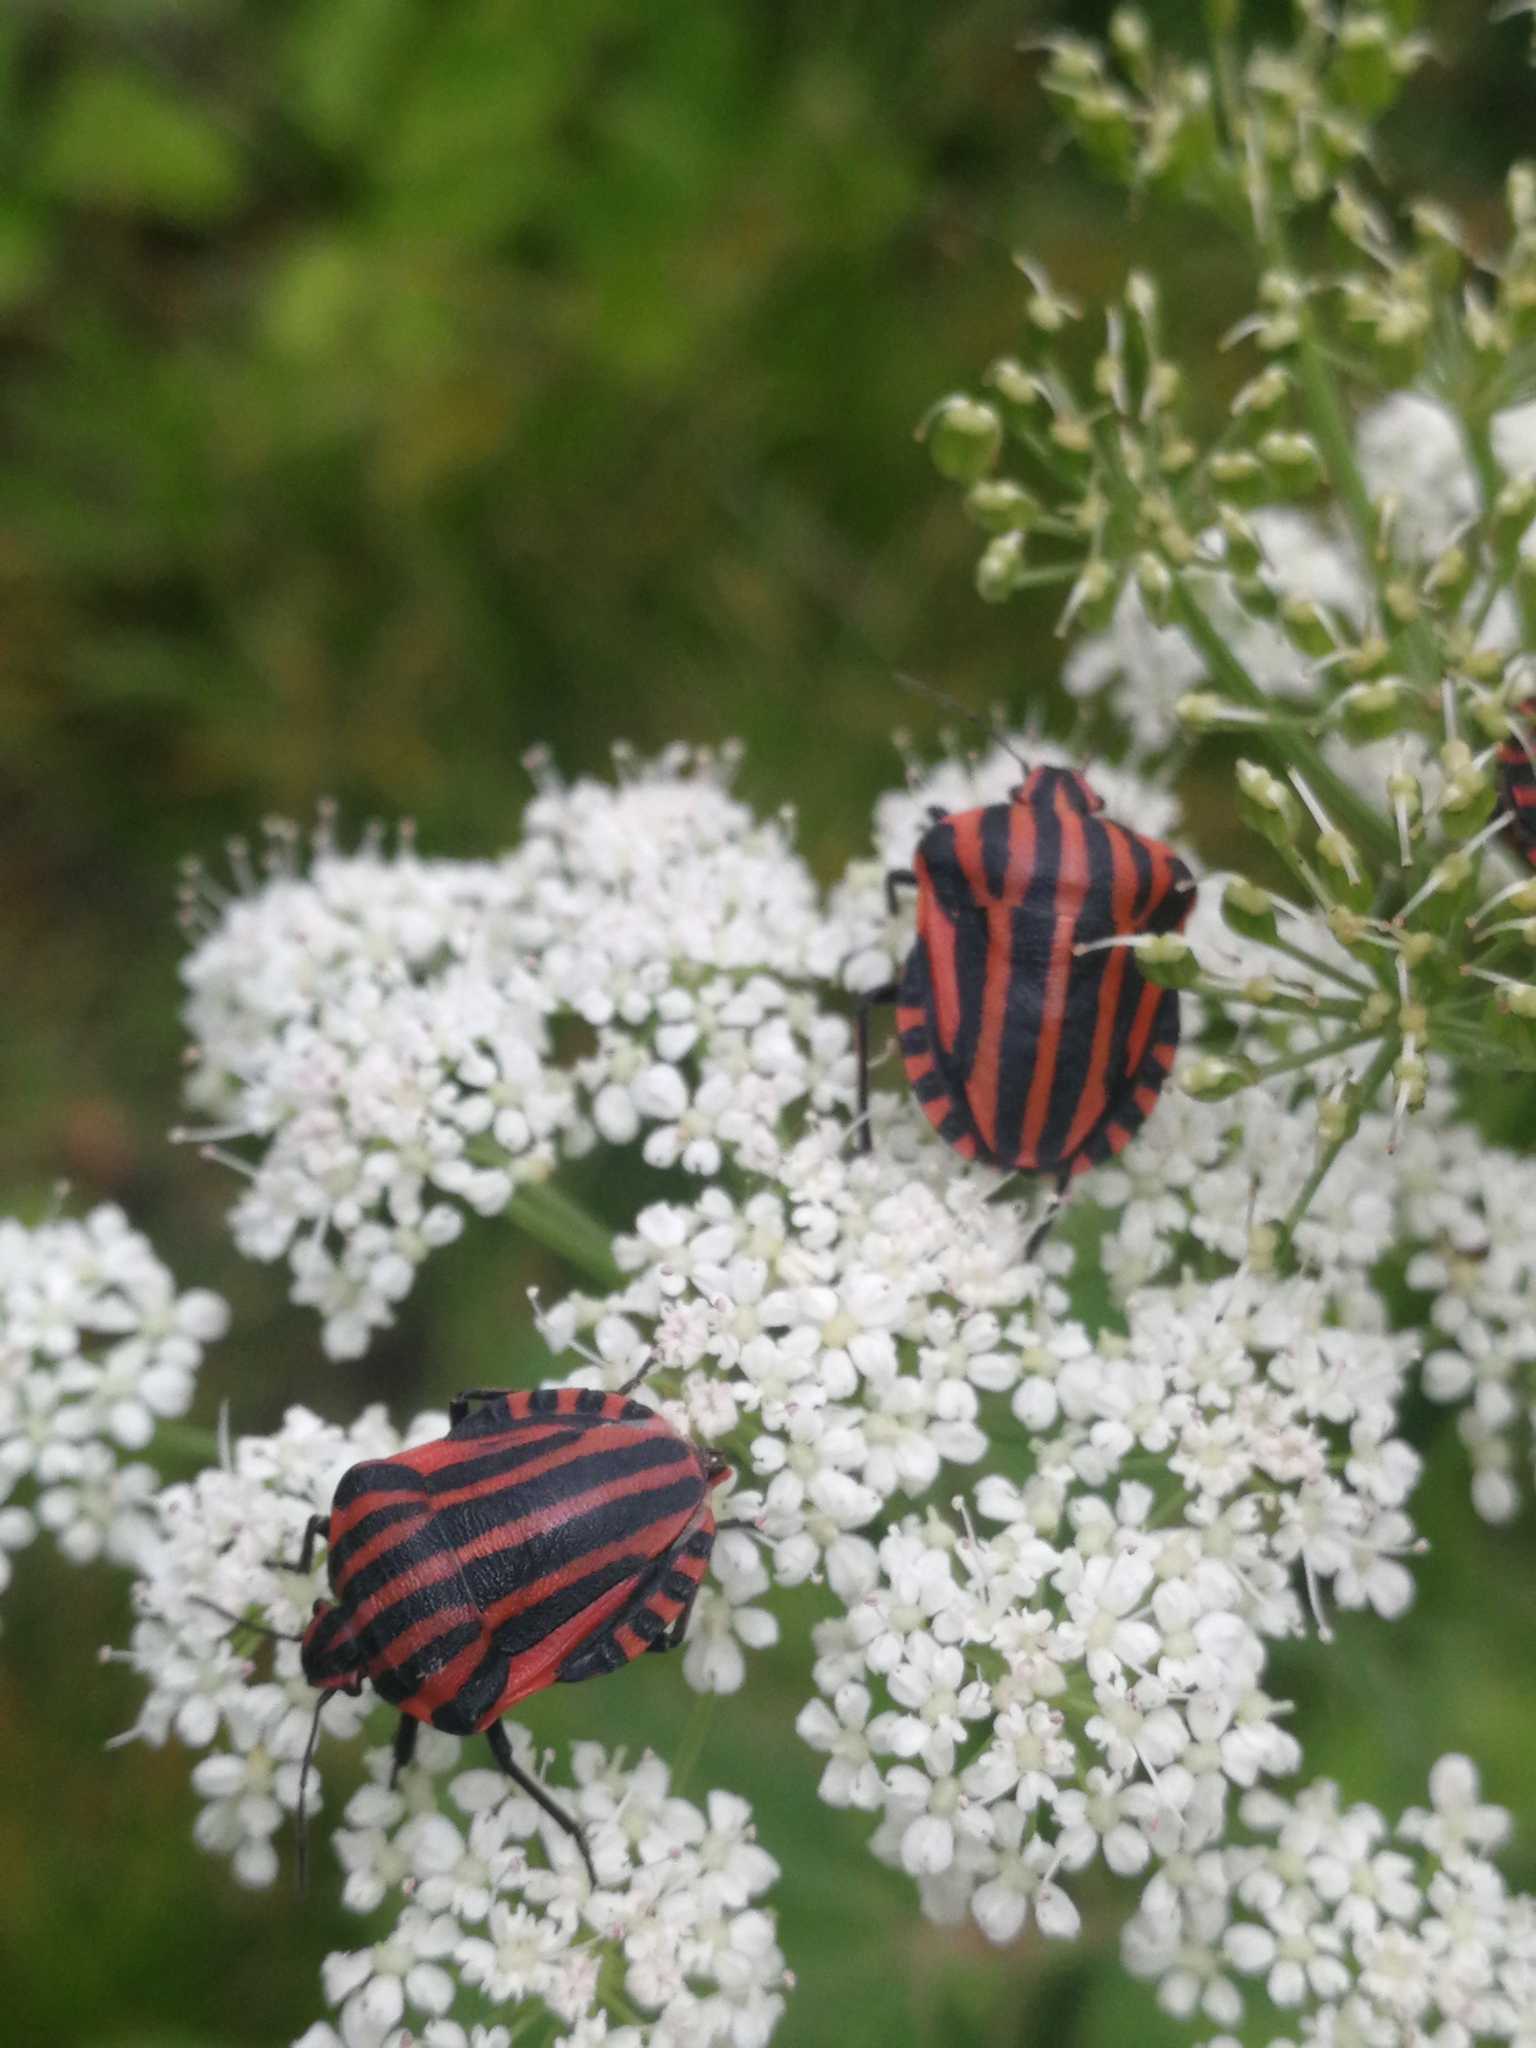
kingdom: Animalia
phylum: Arthropoda
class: Insecta
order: Hemiptera
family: Pentatomidae
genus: Graphosoma
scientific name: Graphosoma italicum
